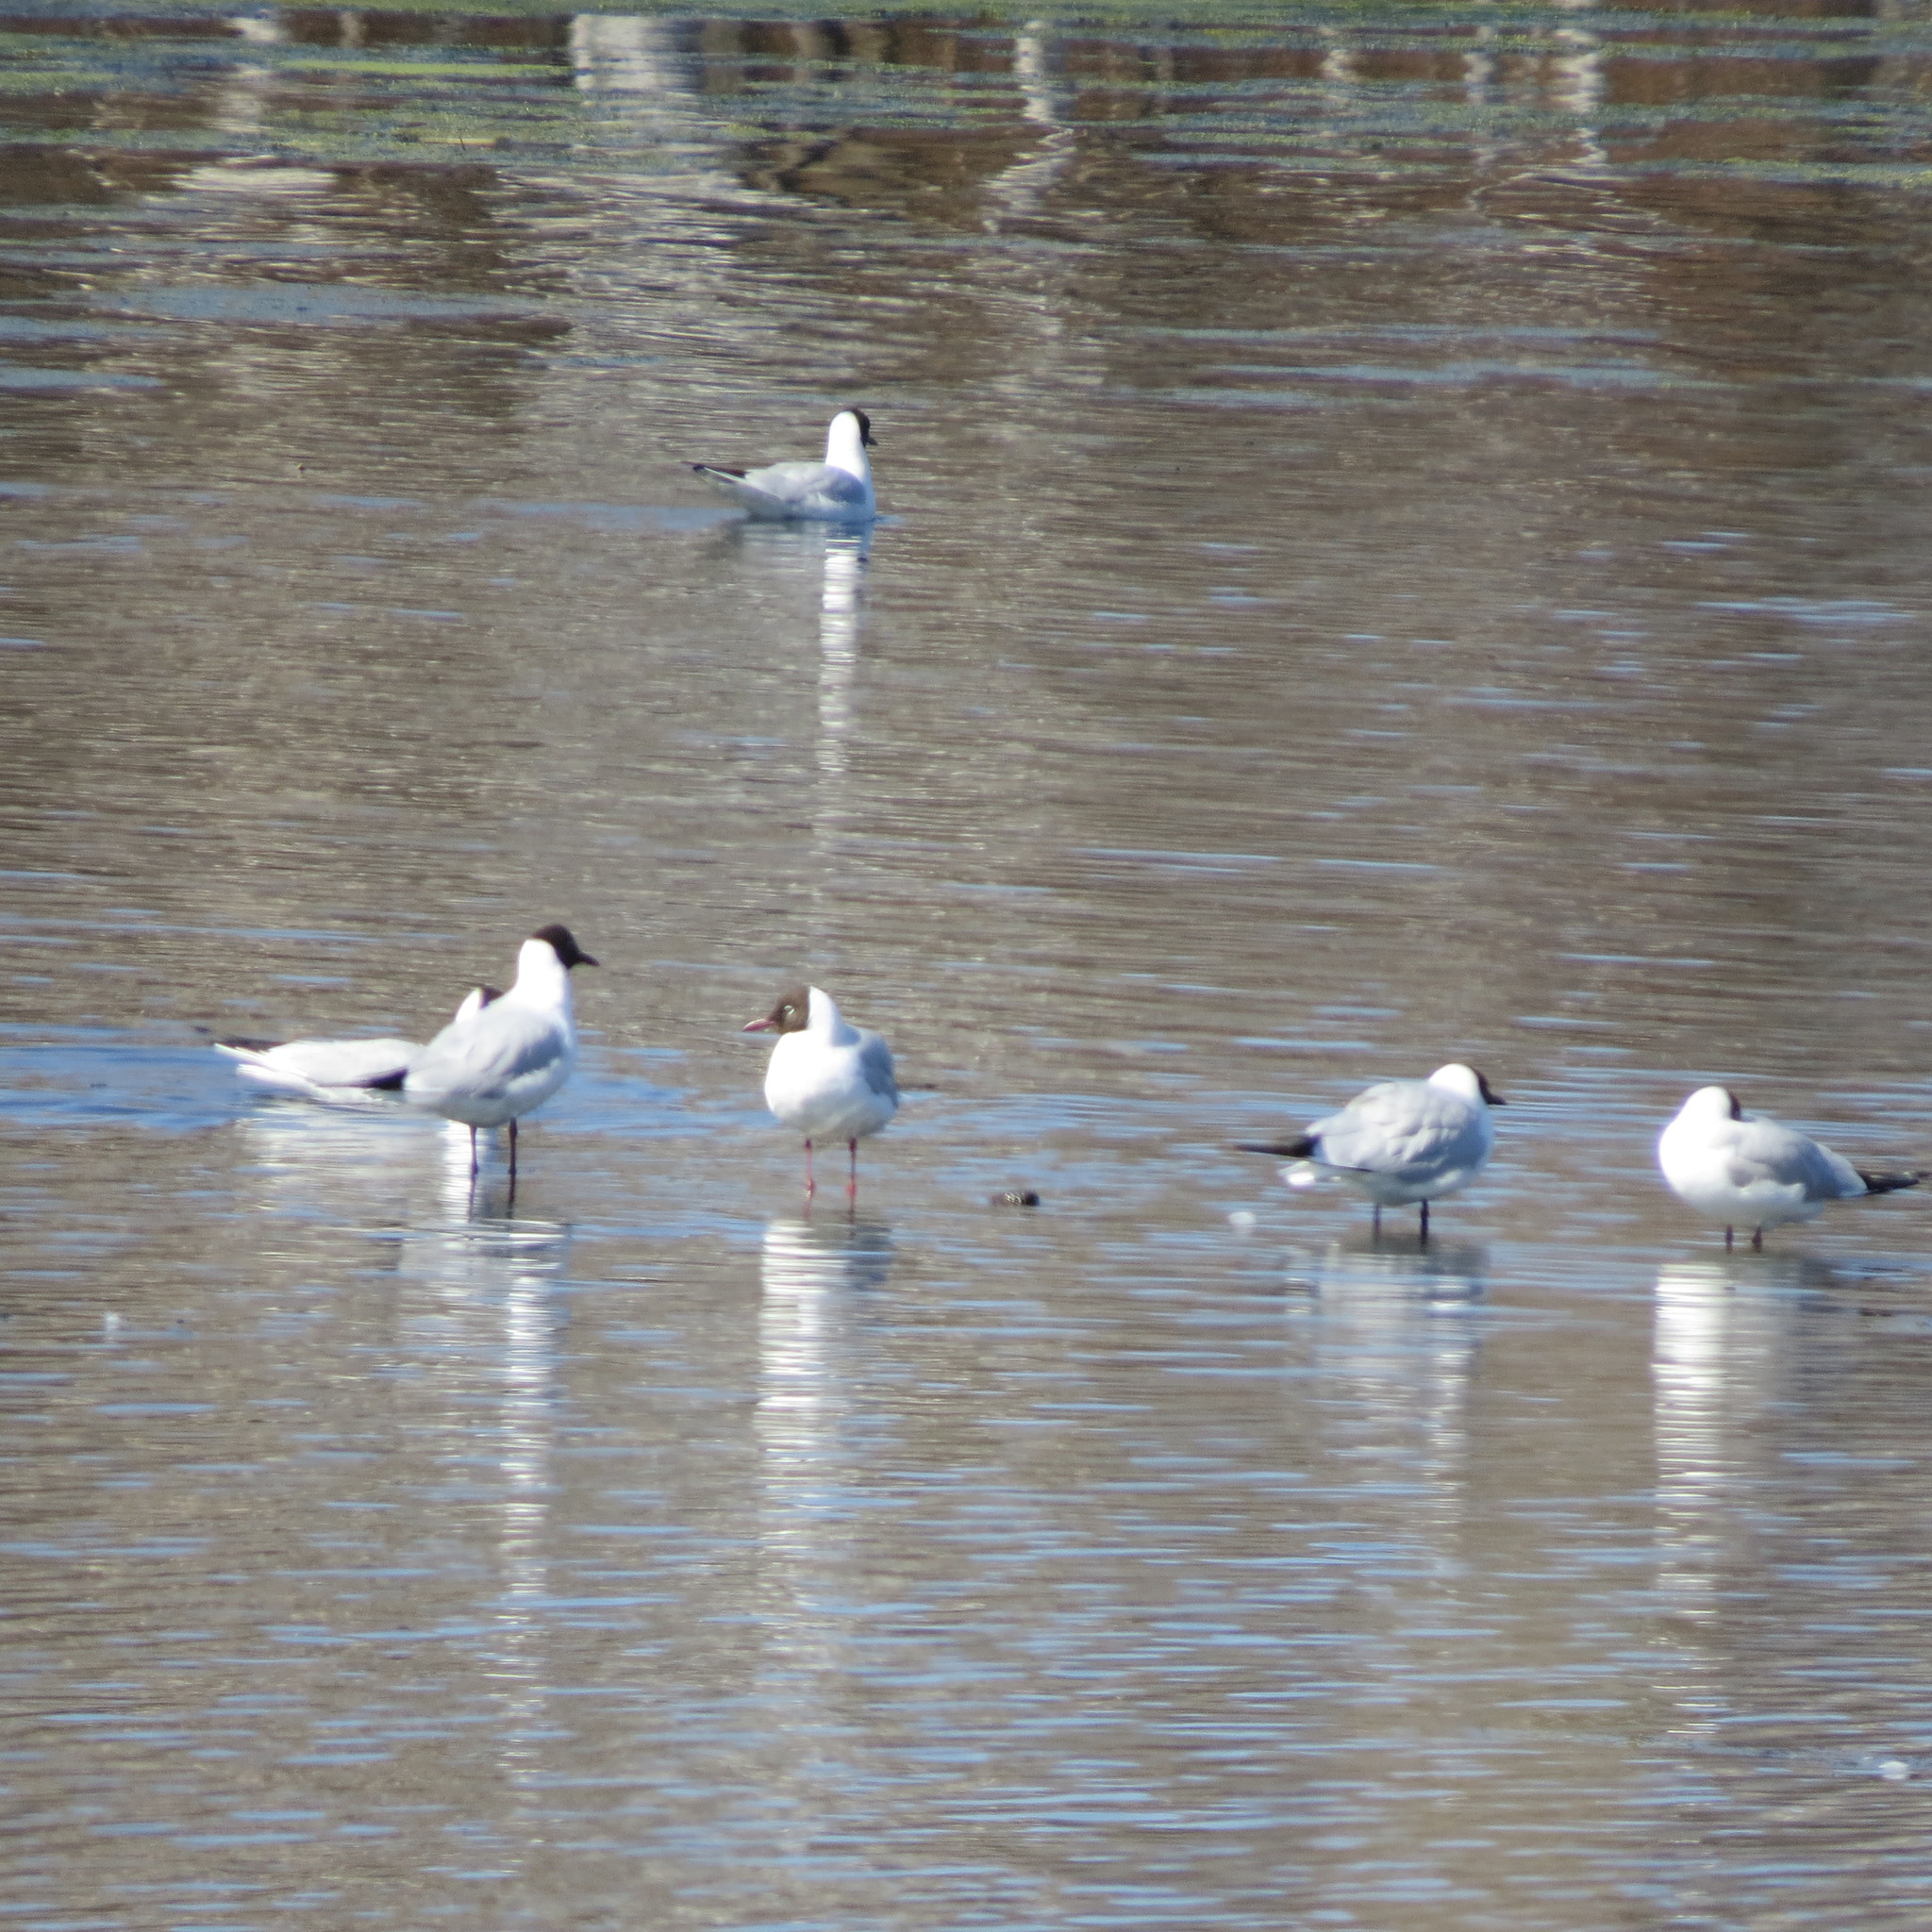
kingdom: Animalia
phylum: Chordata
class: Aves
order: Charadriiformes
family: Laridae
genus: Chroicocephalus
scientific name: Chroicocephalus ridibundus
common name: Black-headed gull
